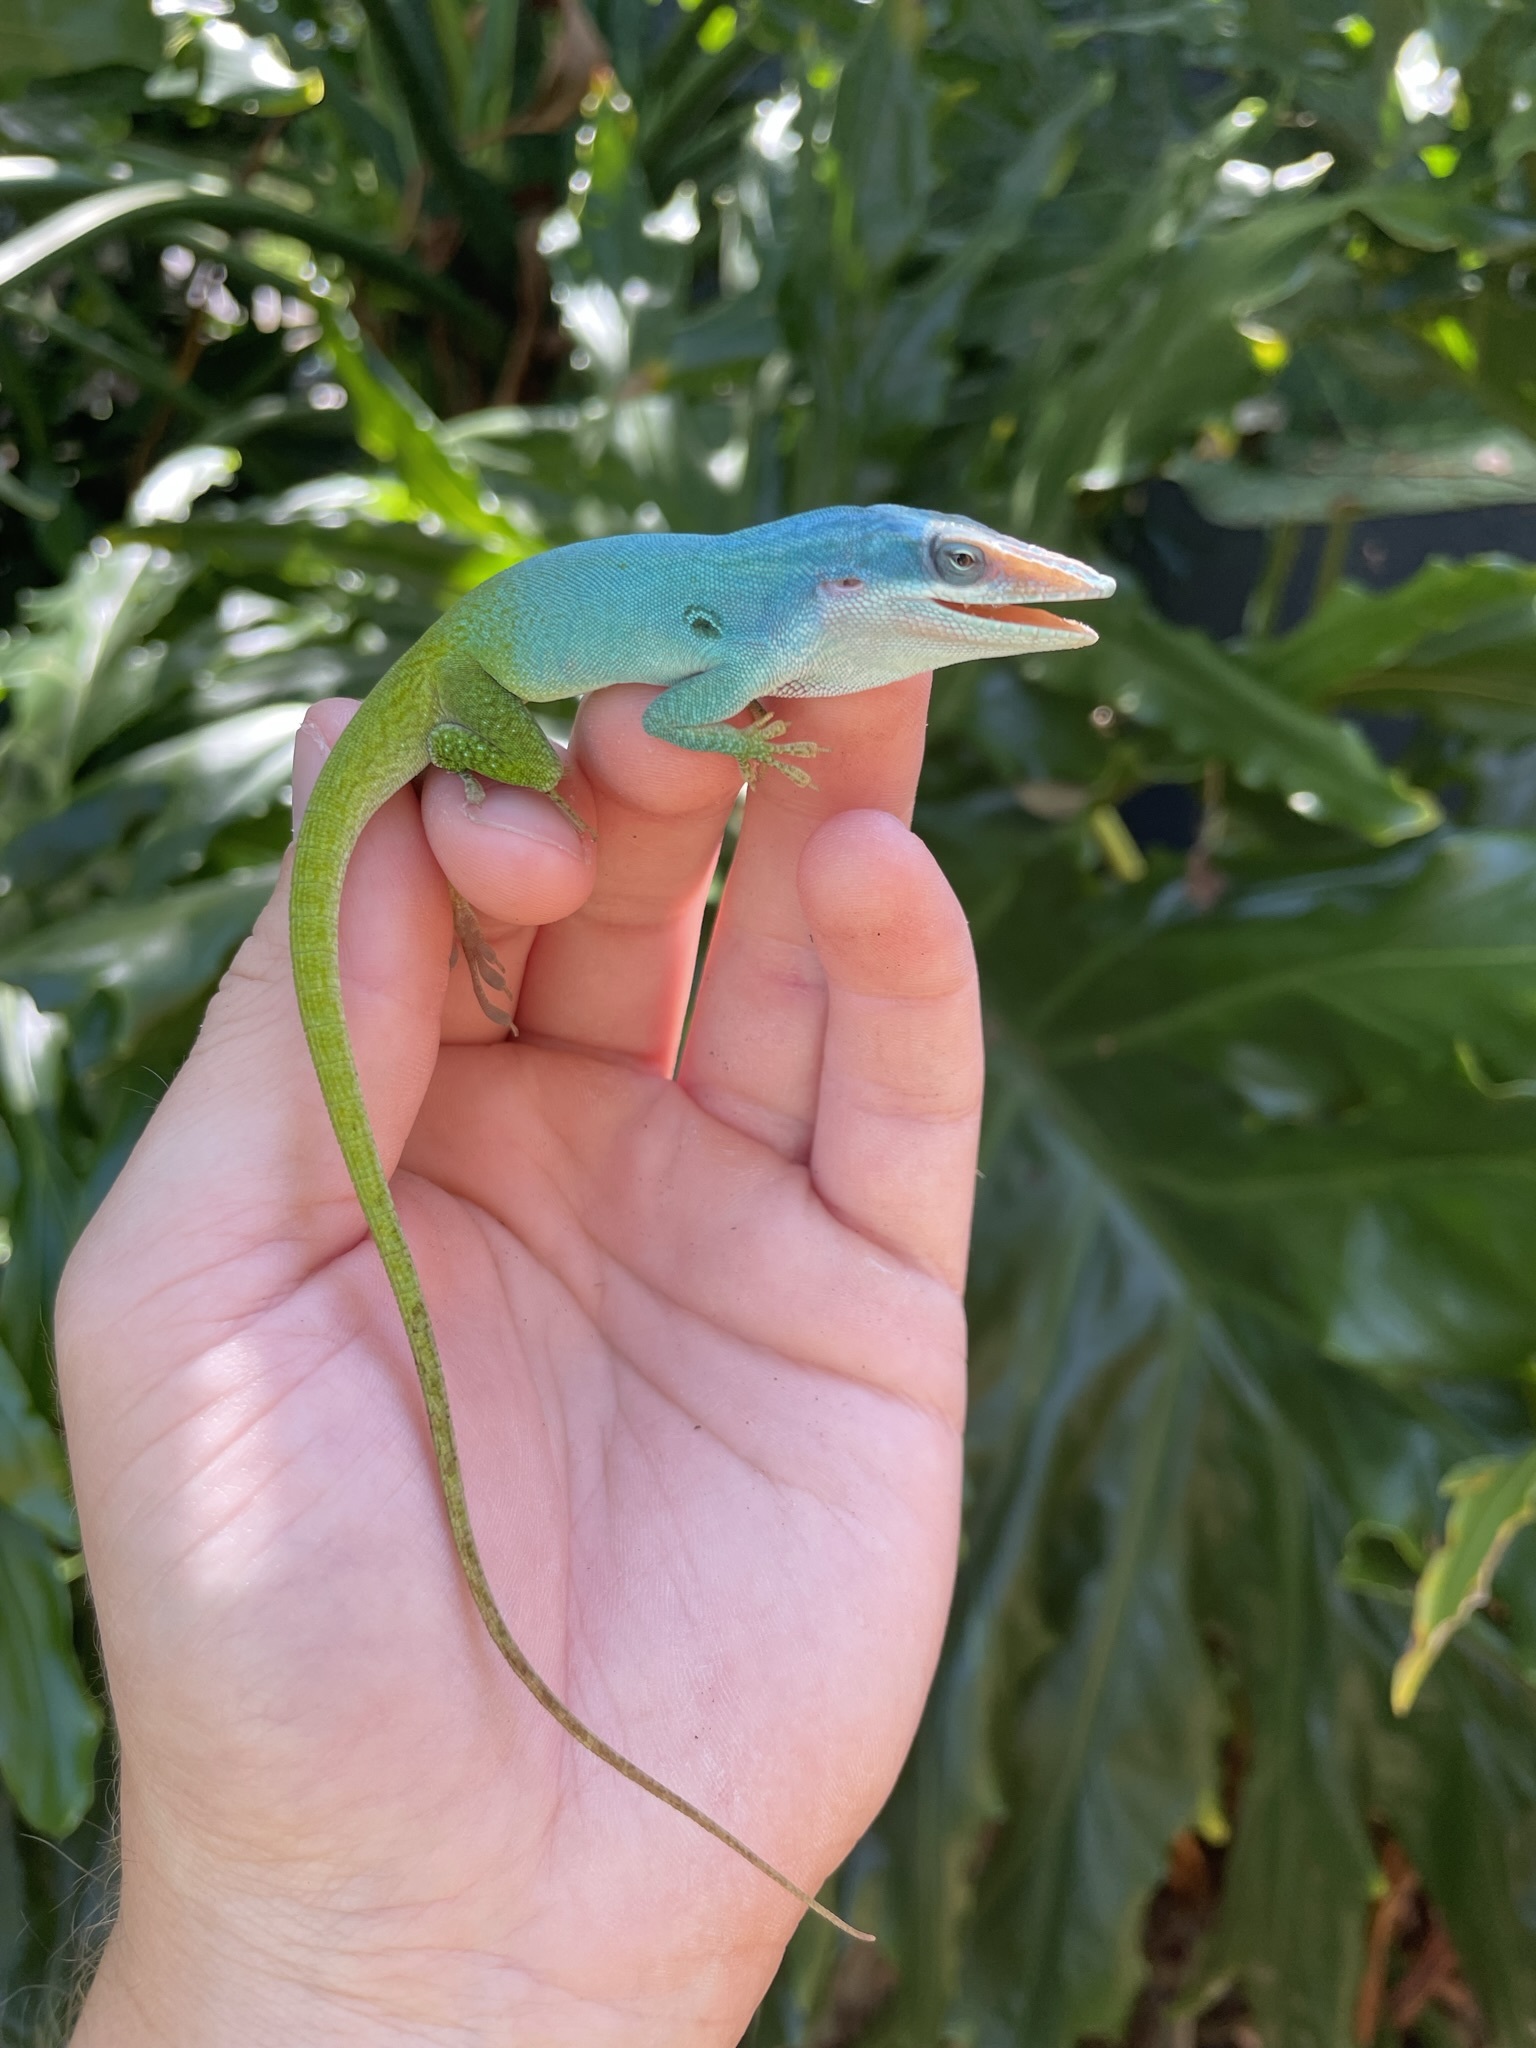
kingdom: Animalia
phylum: Chordata
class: Squamata
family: Dactyloidae
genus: Anolis
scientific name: Anolis allisoni
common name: Allison's anole
